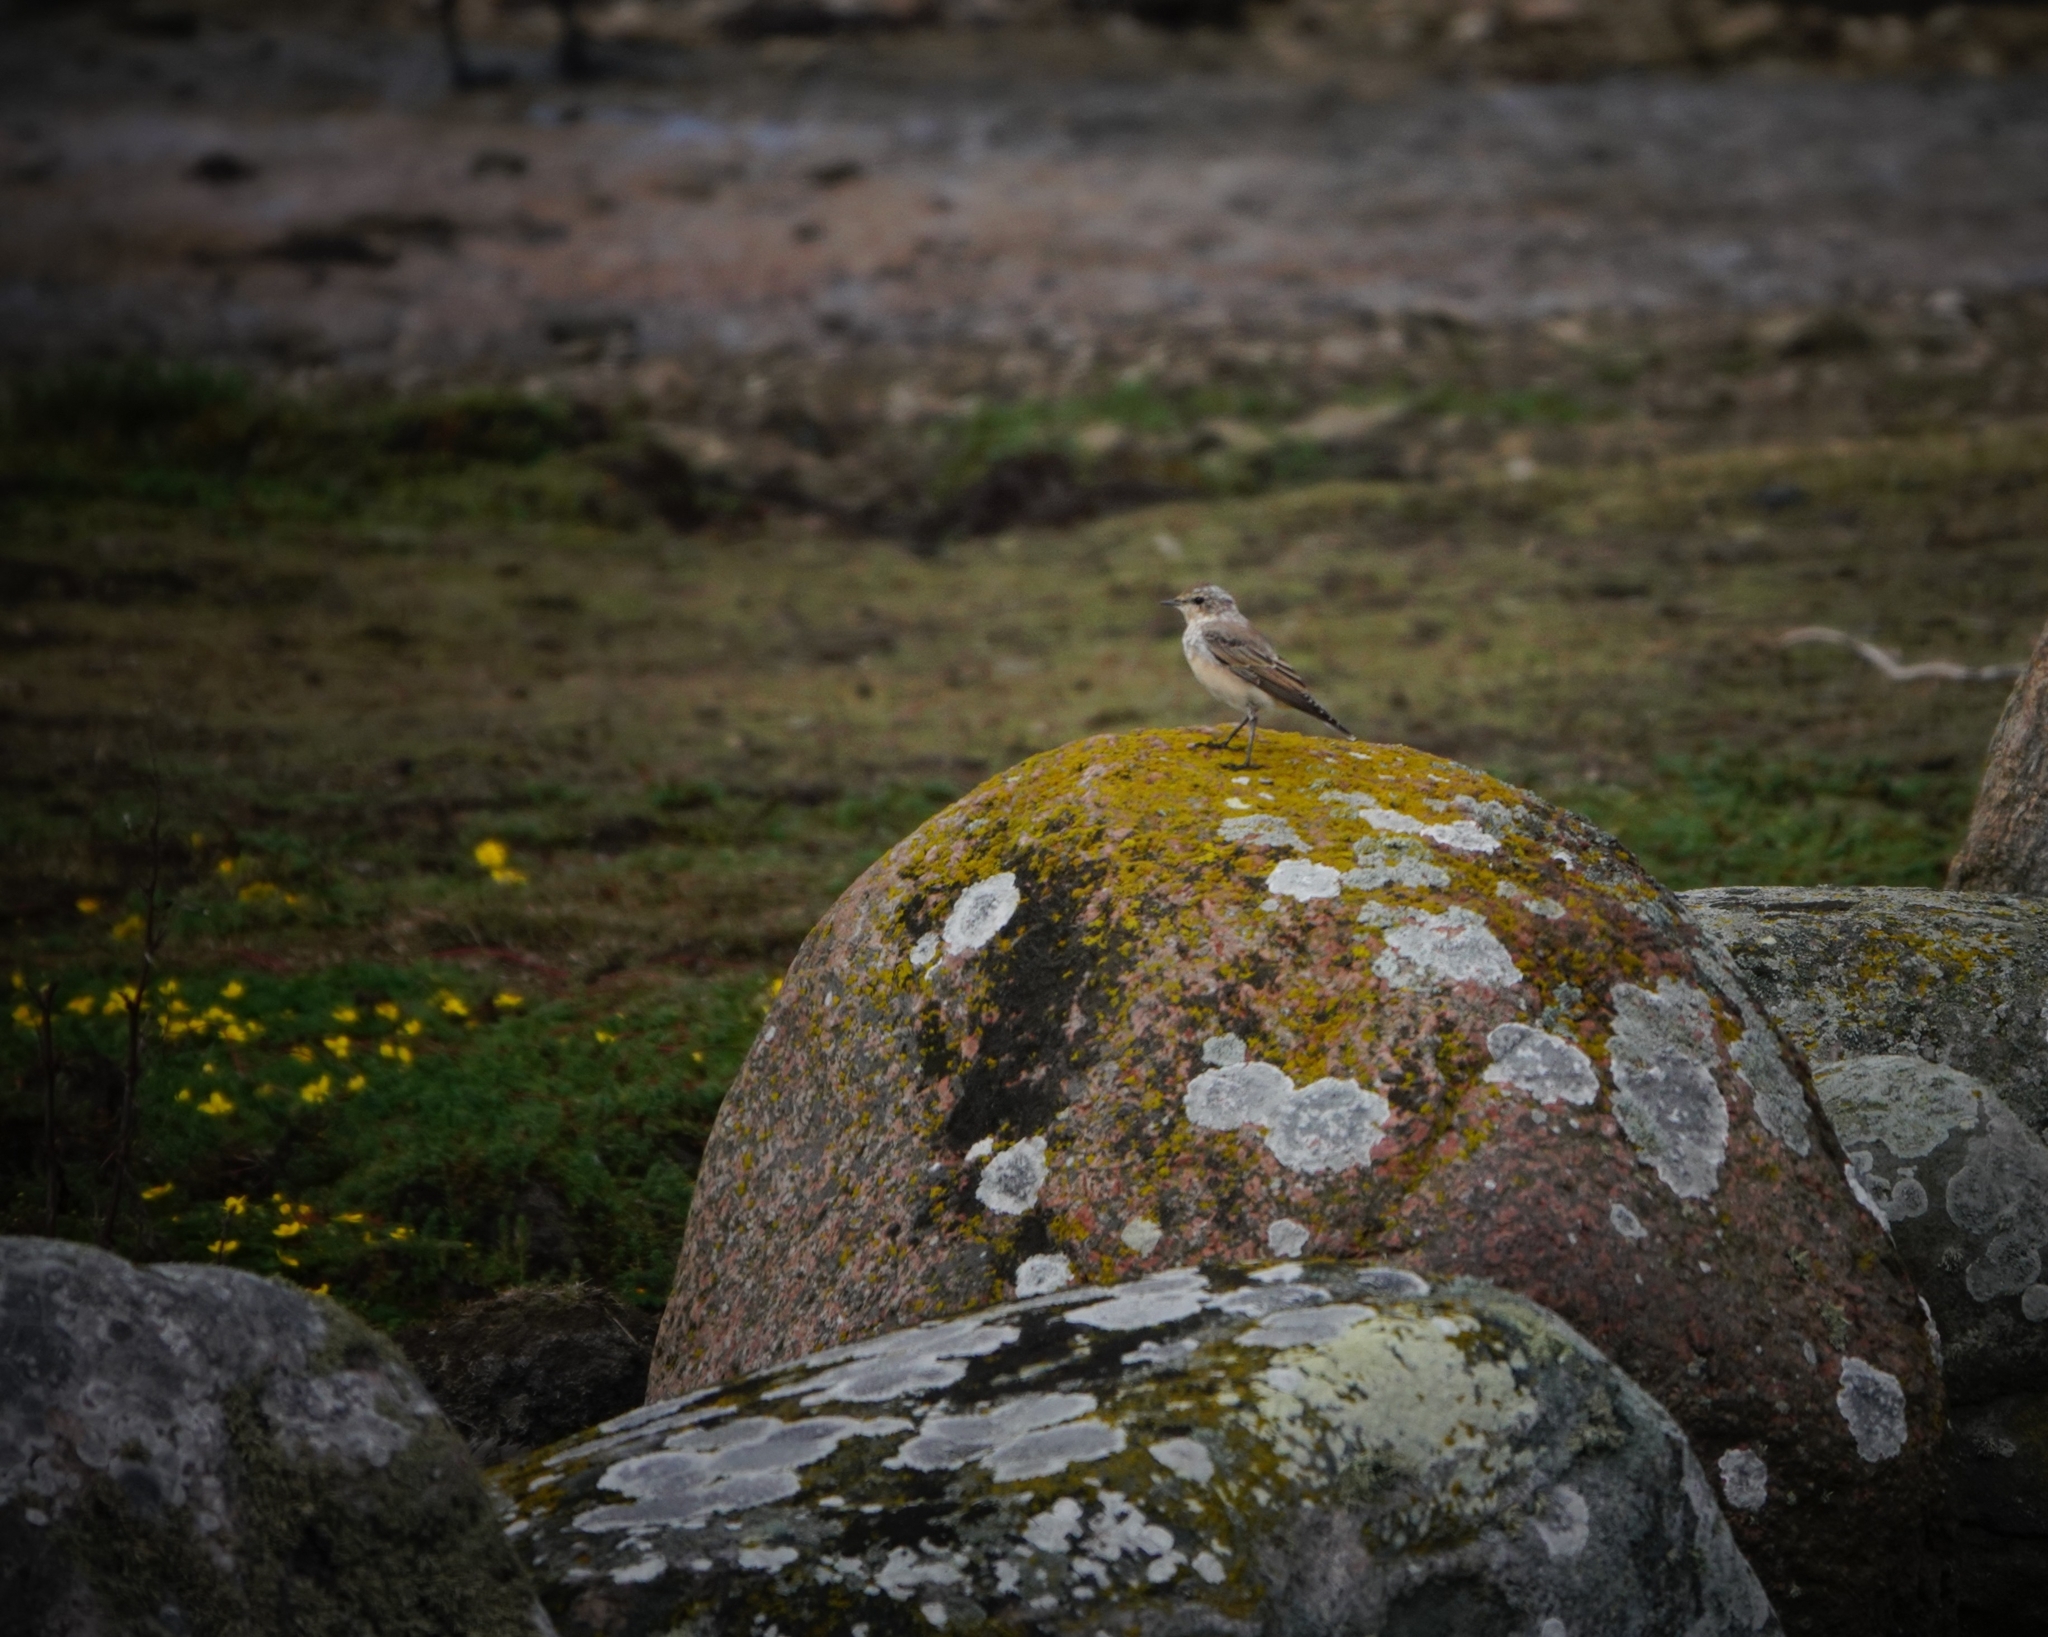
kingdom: Animalia
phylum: Chordata
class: Aves
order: Passeriformes
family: Muscicapidae
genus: Oenanthe
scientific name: Oenanthe oenanthe
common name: Northern wheatear
